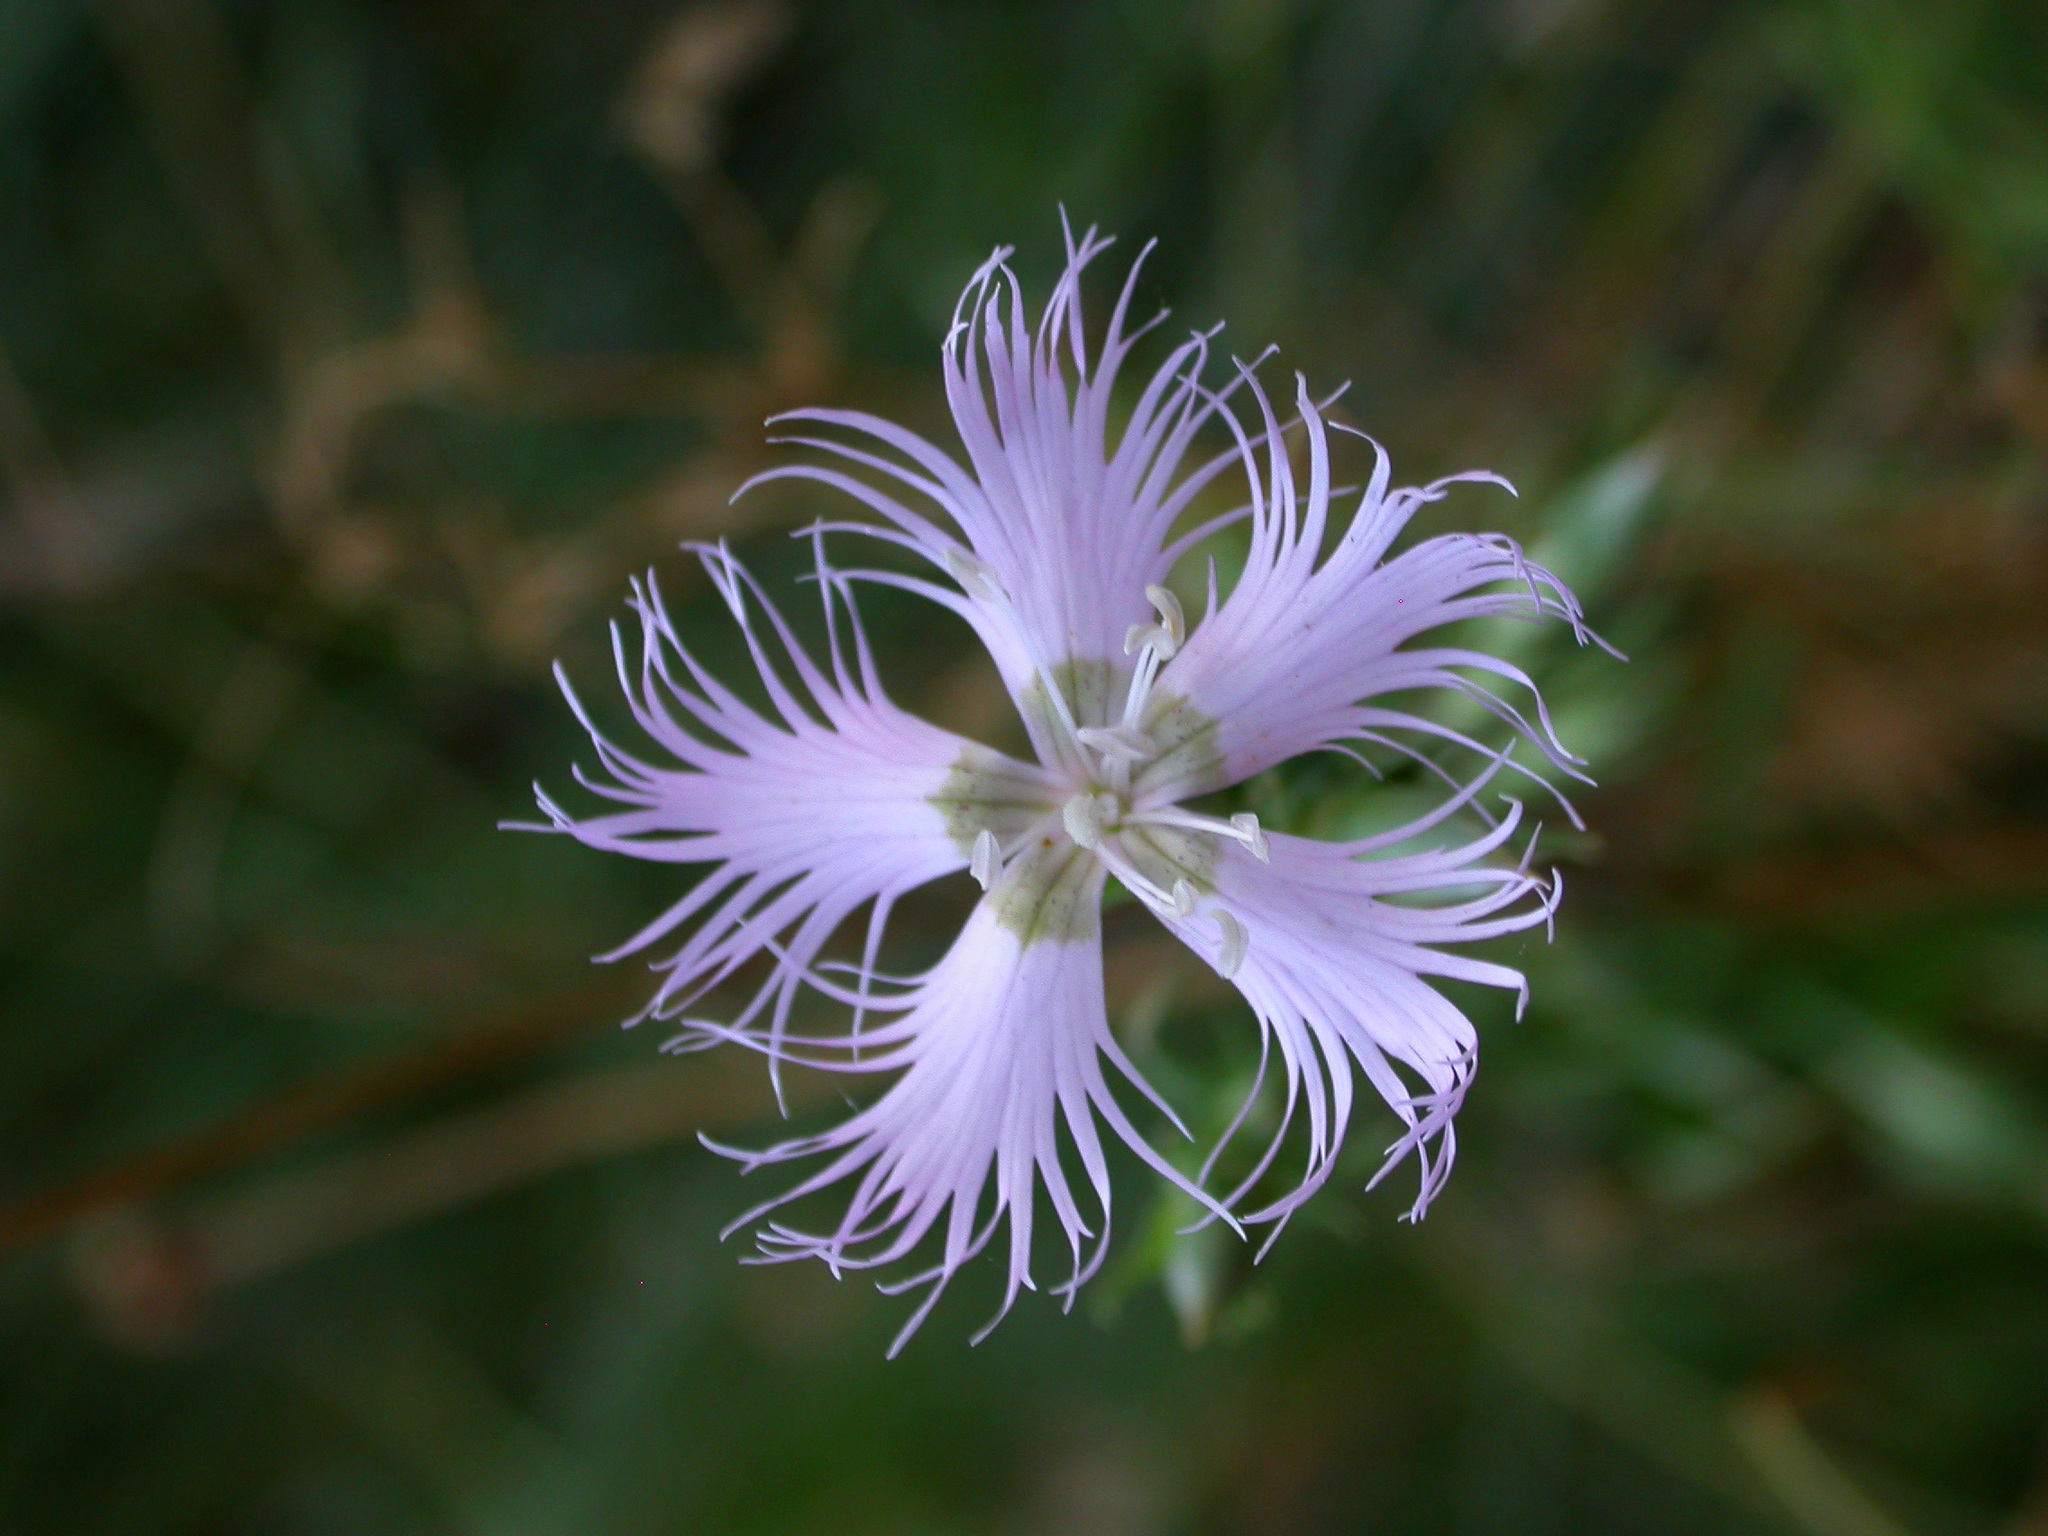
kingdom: Plantae
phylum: Tracheophyta
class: Magnoliopsida
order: Caryophyllales
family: Caryophyllaceae
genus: Dianthus
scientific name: Dianthus hyssopifolius
